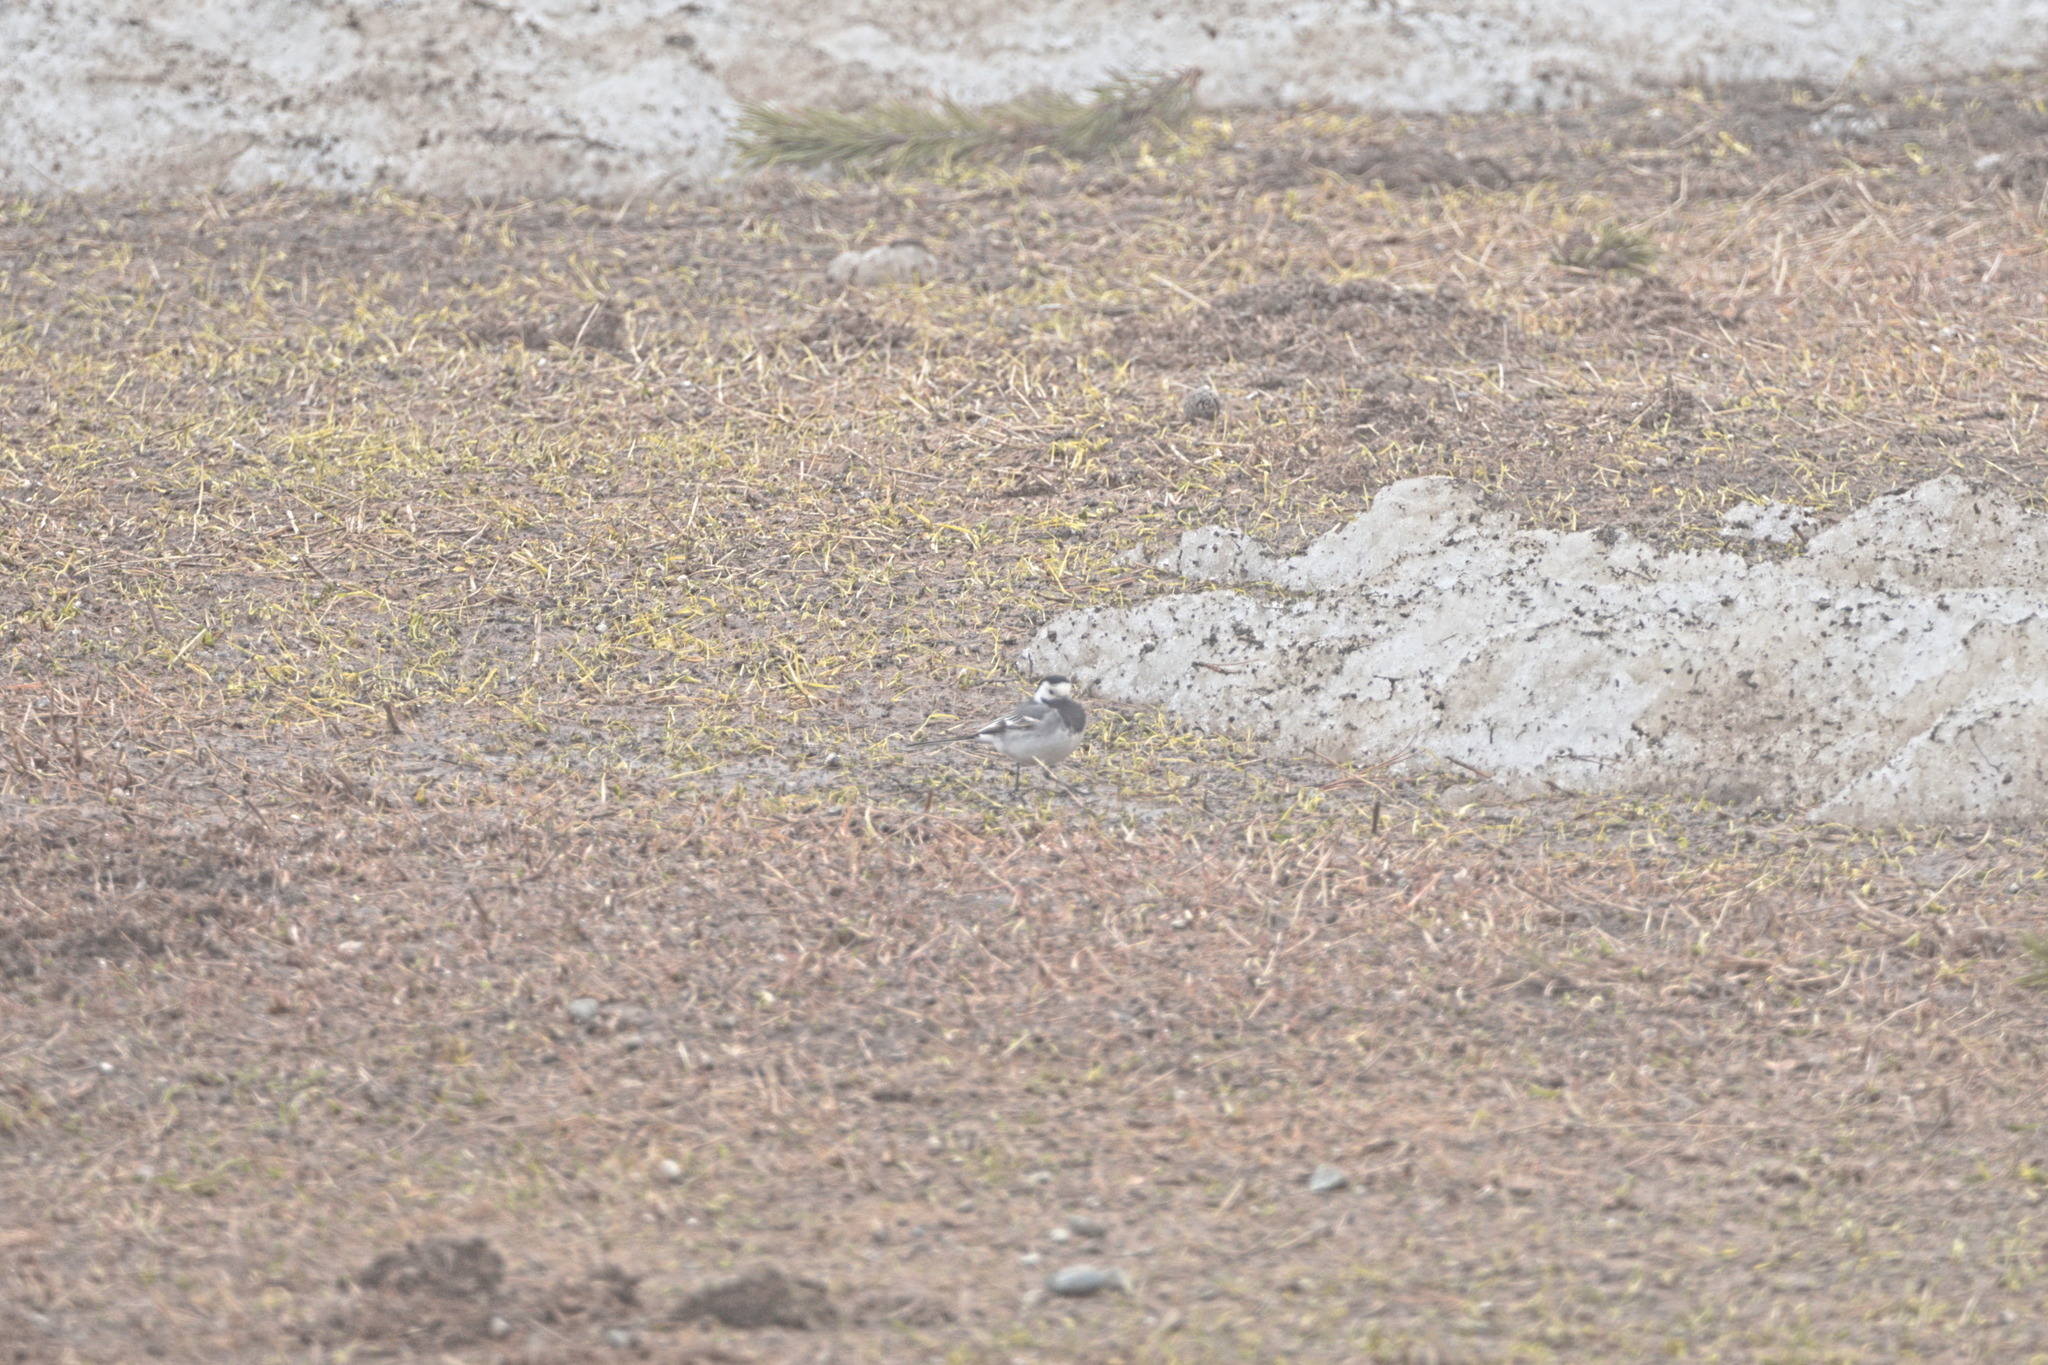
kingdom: Animalia
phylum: Chordata
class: Aves
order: Passeriformes
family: Motacillidae
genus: Motacilla
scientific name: Motacilla alba
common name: White wagtail
